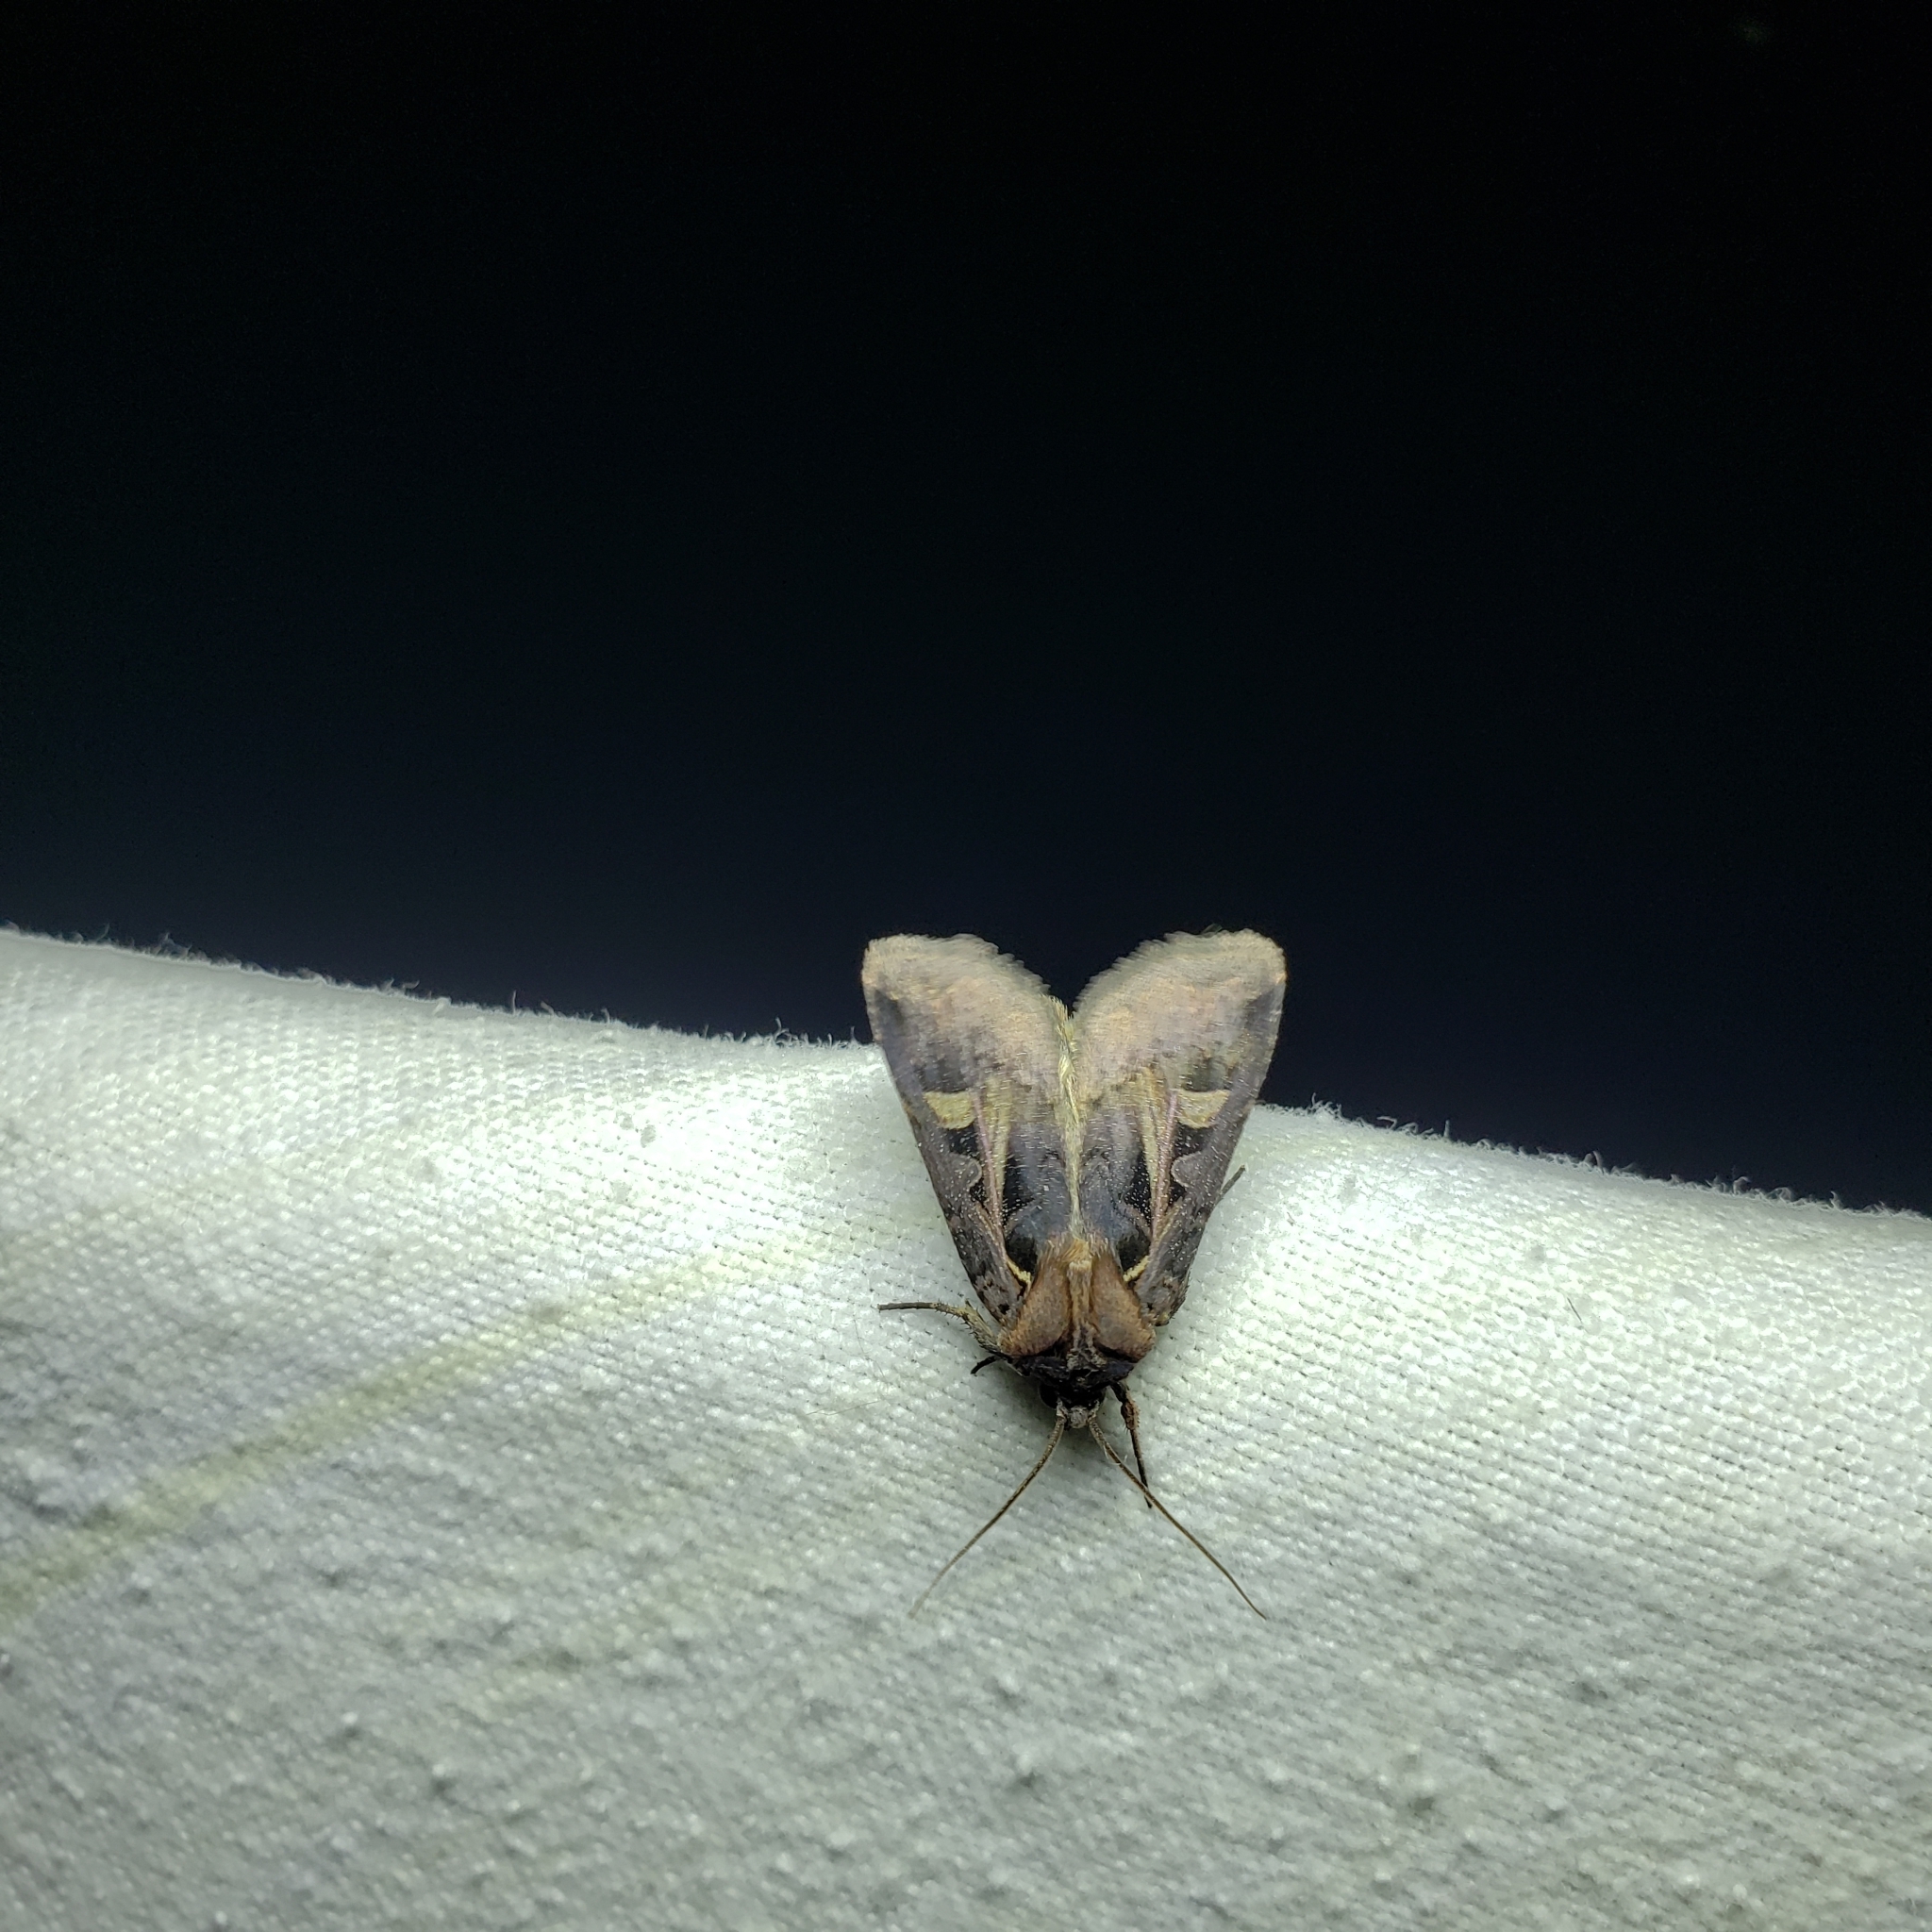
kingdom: Animalia
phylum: Arthropoda
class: Insecta
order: Lepidoptera
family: Noctuidae
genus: Feltia
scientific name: Feltia herilis
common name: Master's dart
